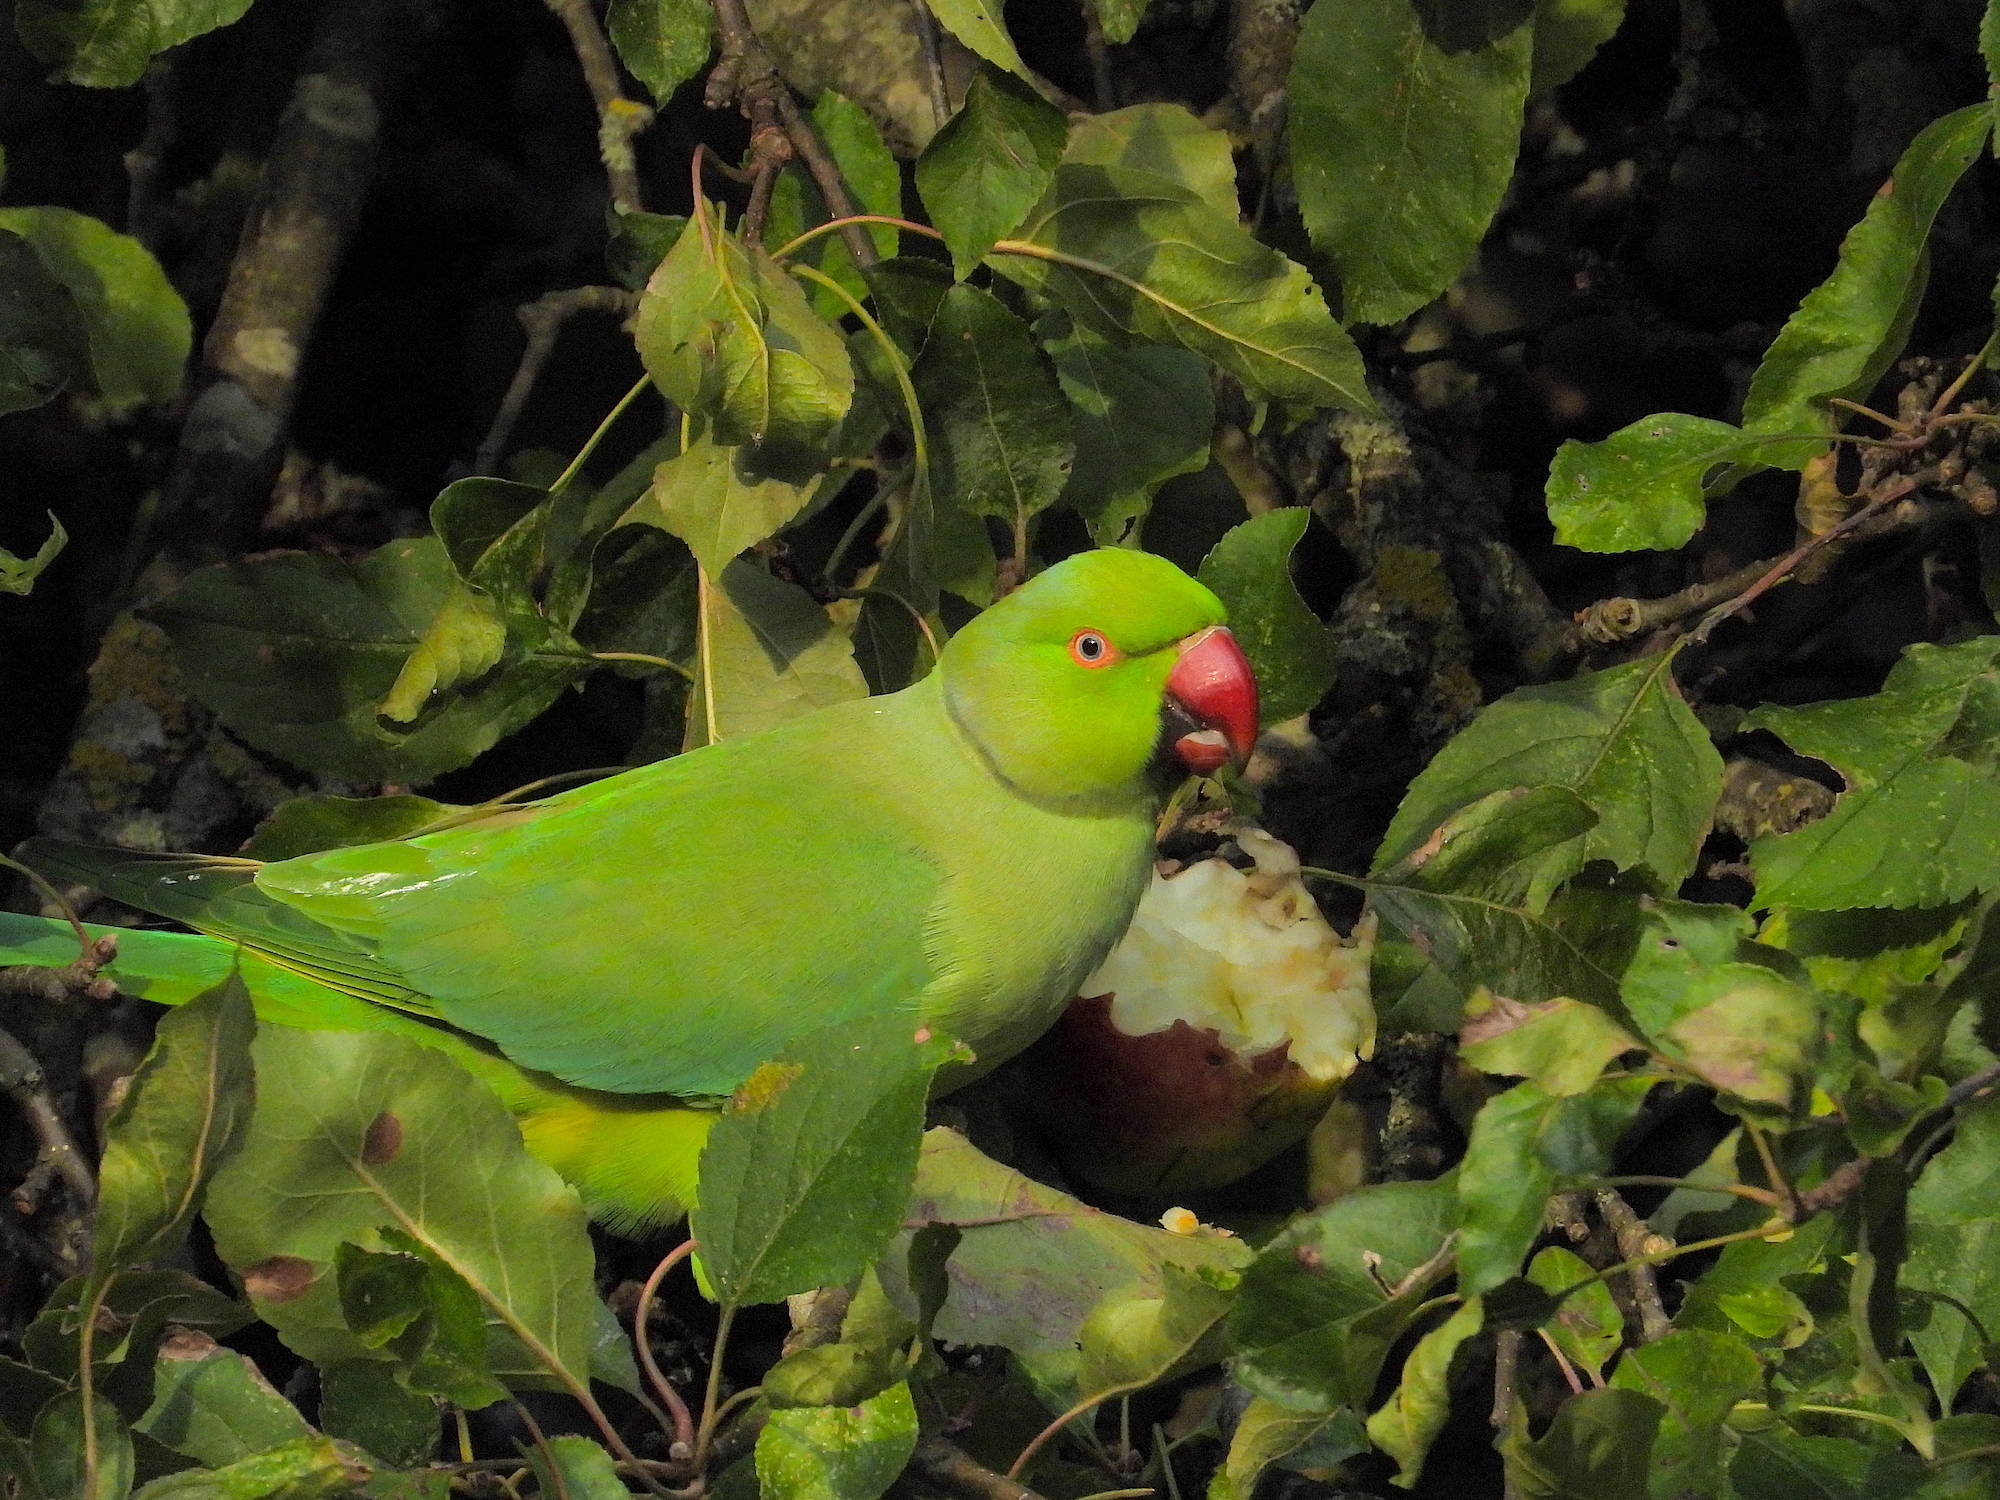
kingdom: Animalia
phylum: Chordata
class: Aves
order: Psittaciformes
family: Psittacidae
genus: Psittacula
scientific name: Psittacula krameri
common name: Rose-ringed parakeet
